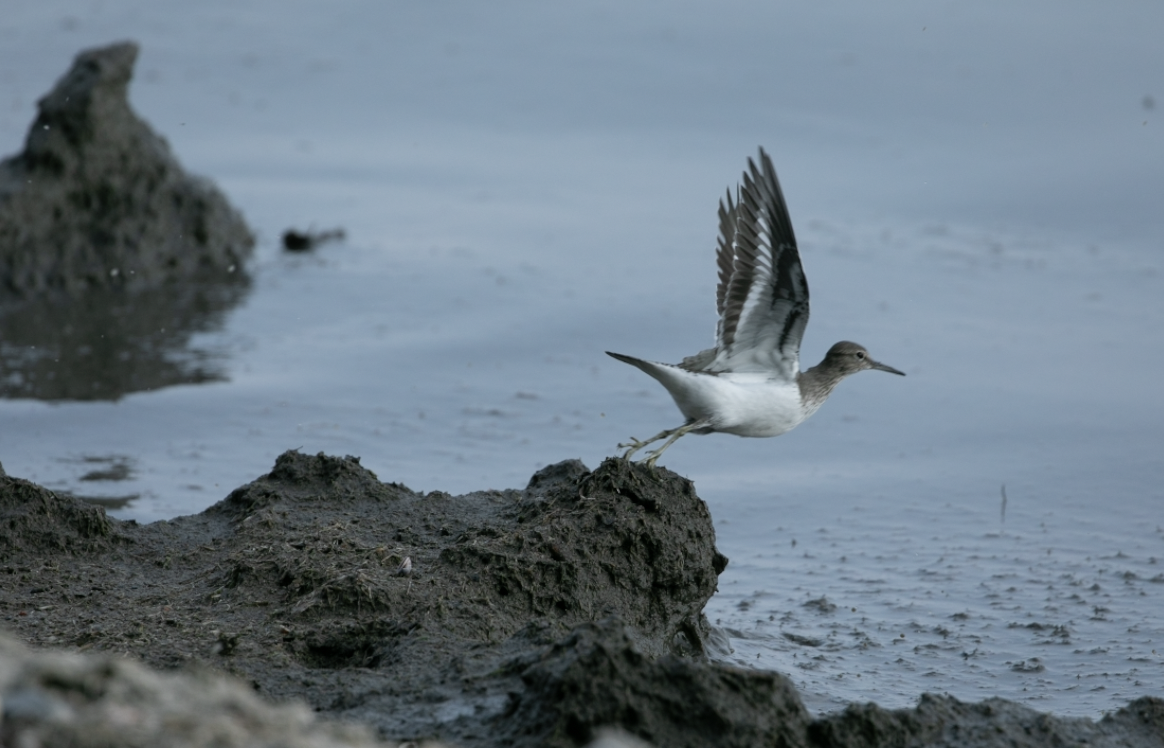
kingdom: Animalia
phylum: Chordata
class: Aves
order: Charadriiformes
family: Scolopacidae
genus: Actitis
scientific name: Actitis hypoleucos
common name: Common sandpiper
